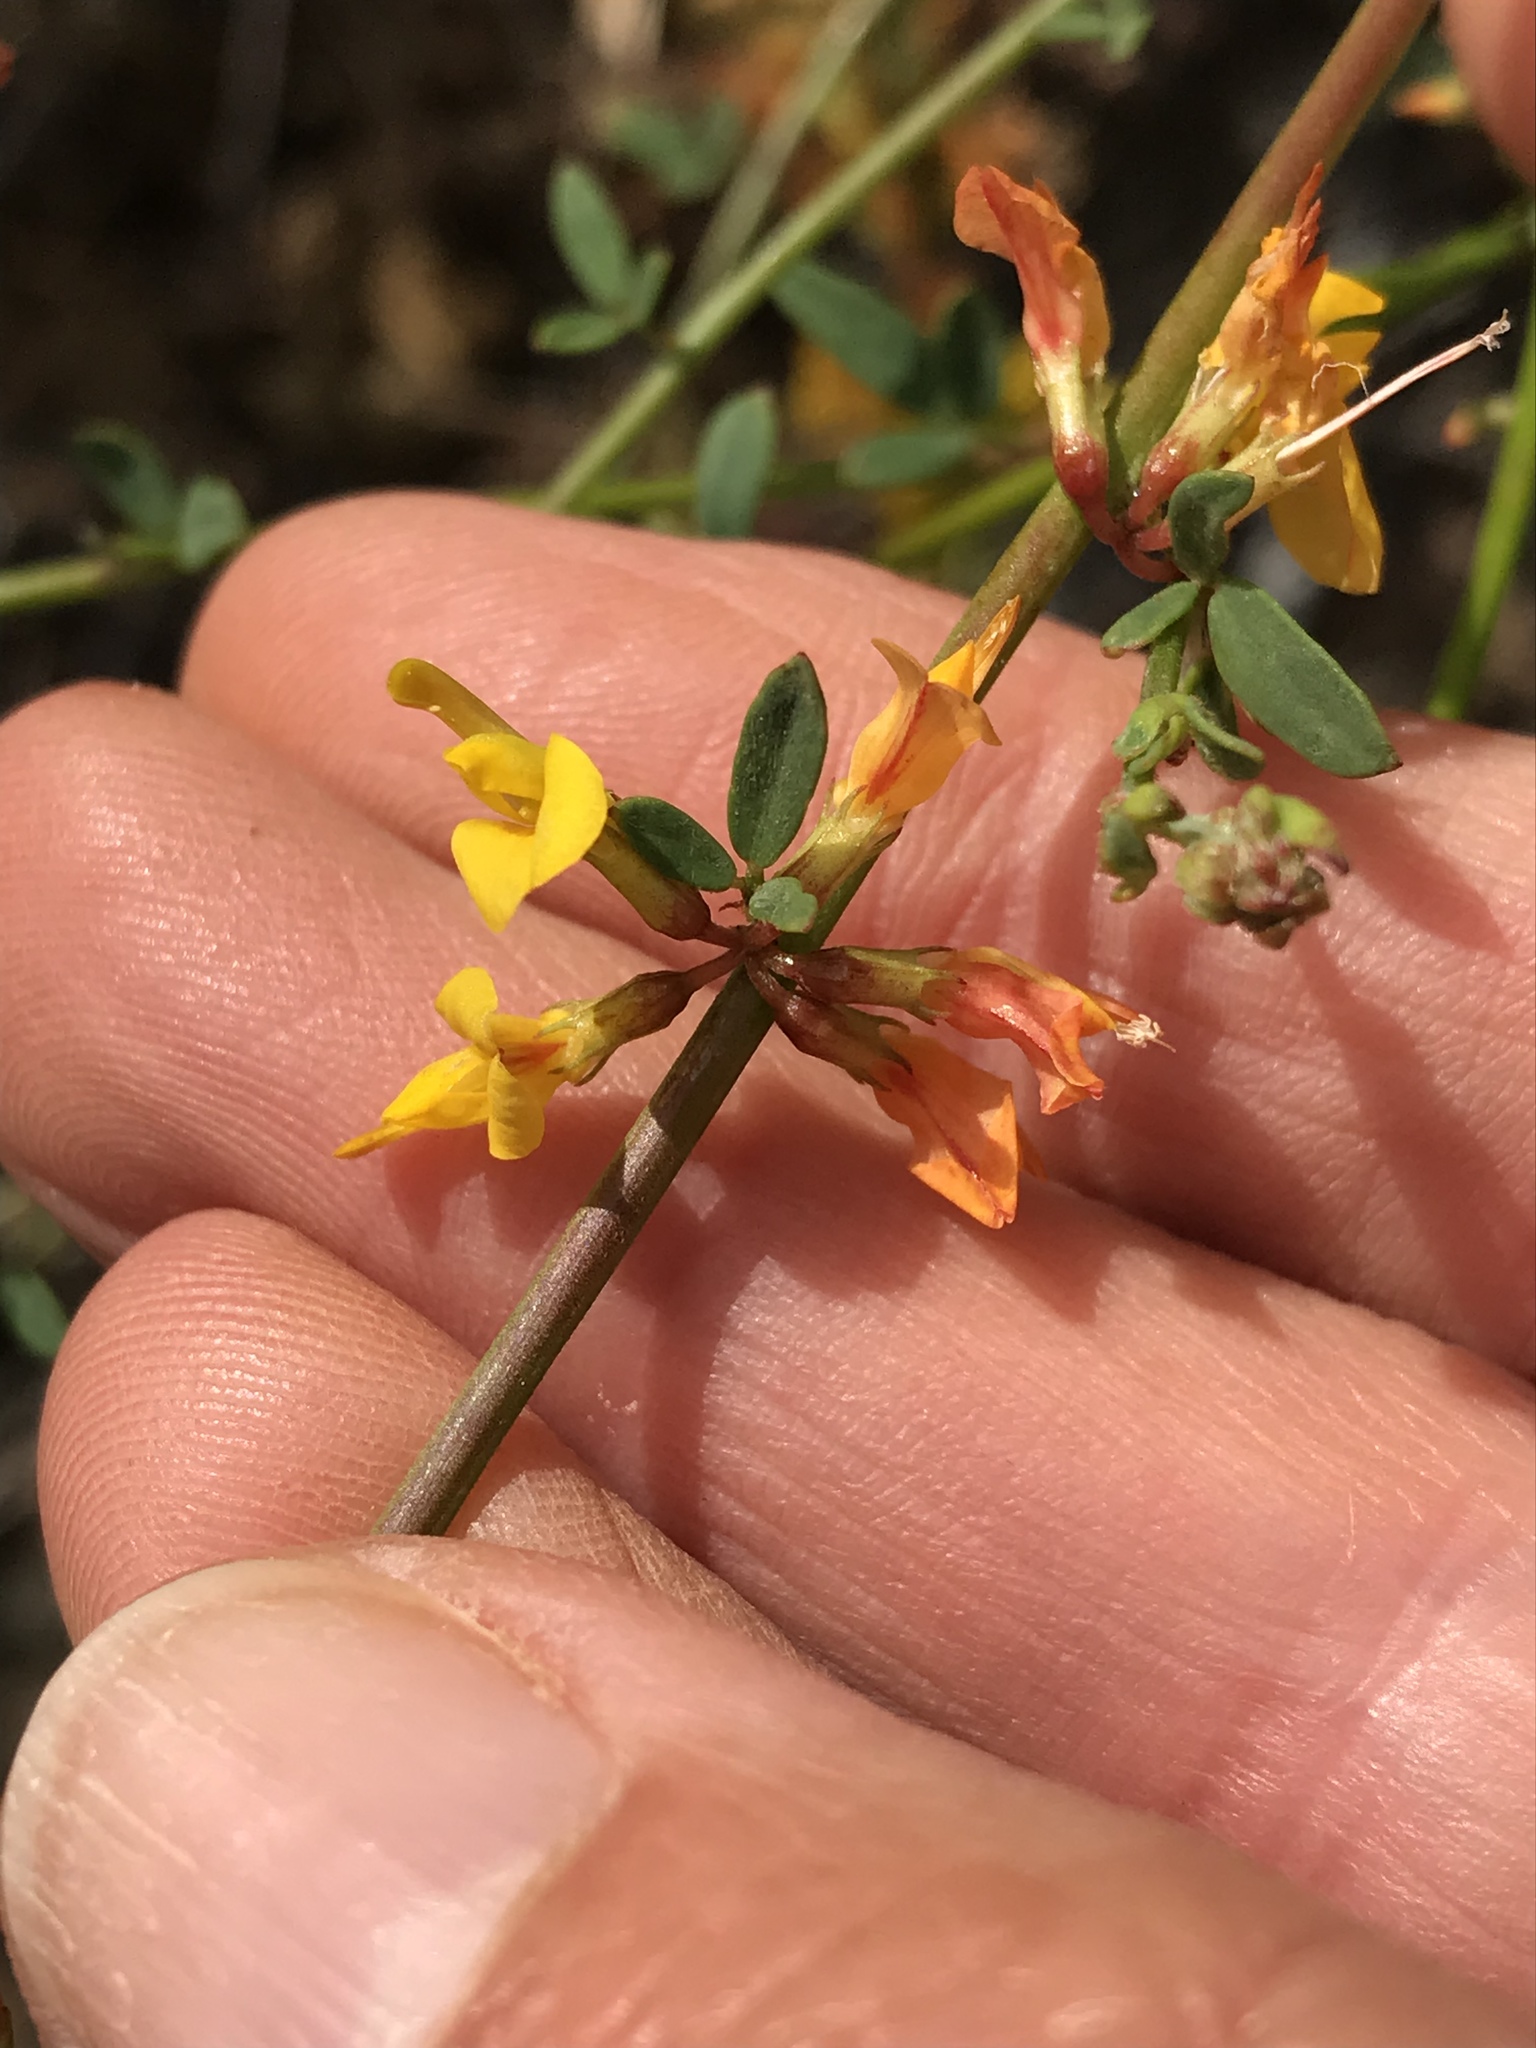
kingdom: Plantae
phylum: Tracheophyta
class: Magnoliopsida
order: Fabales
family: Fabaceae
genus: Acmispon
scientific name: Acmispon glaber
